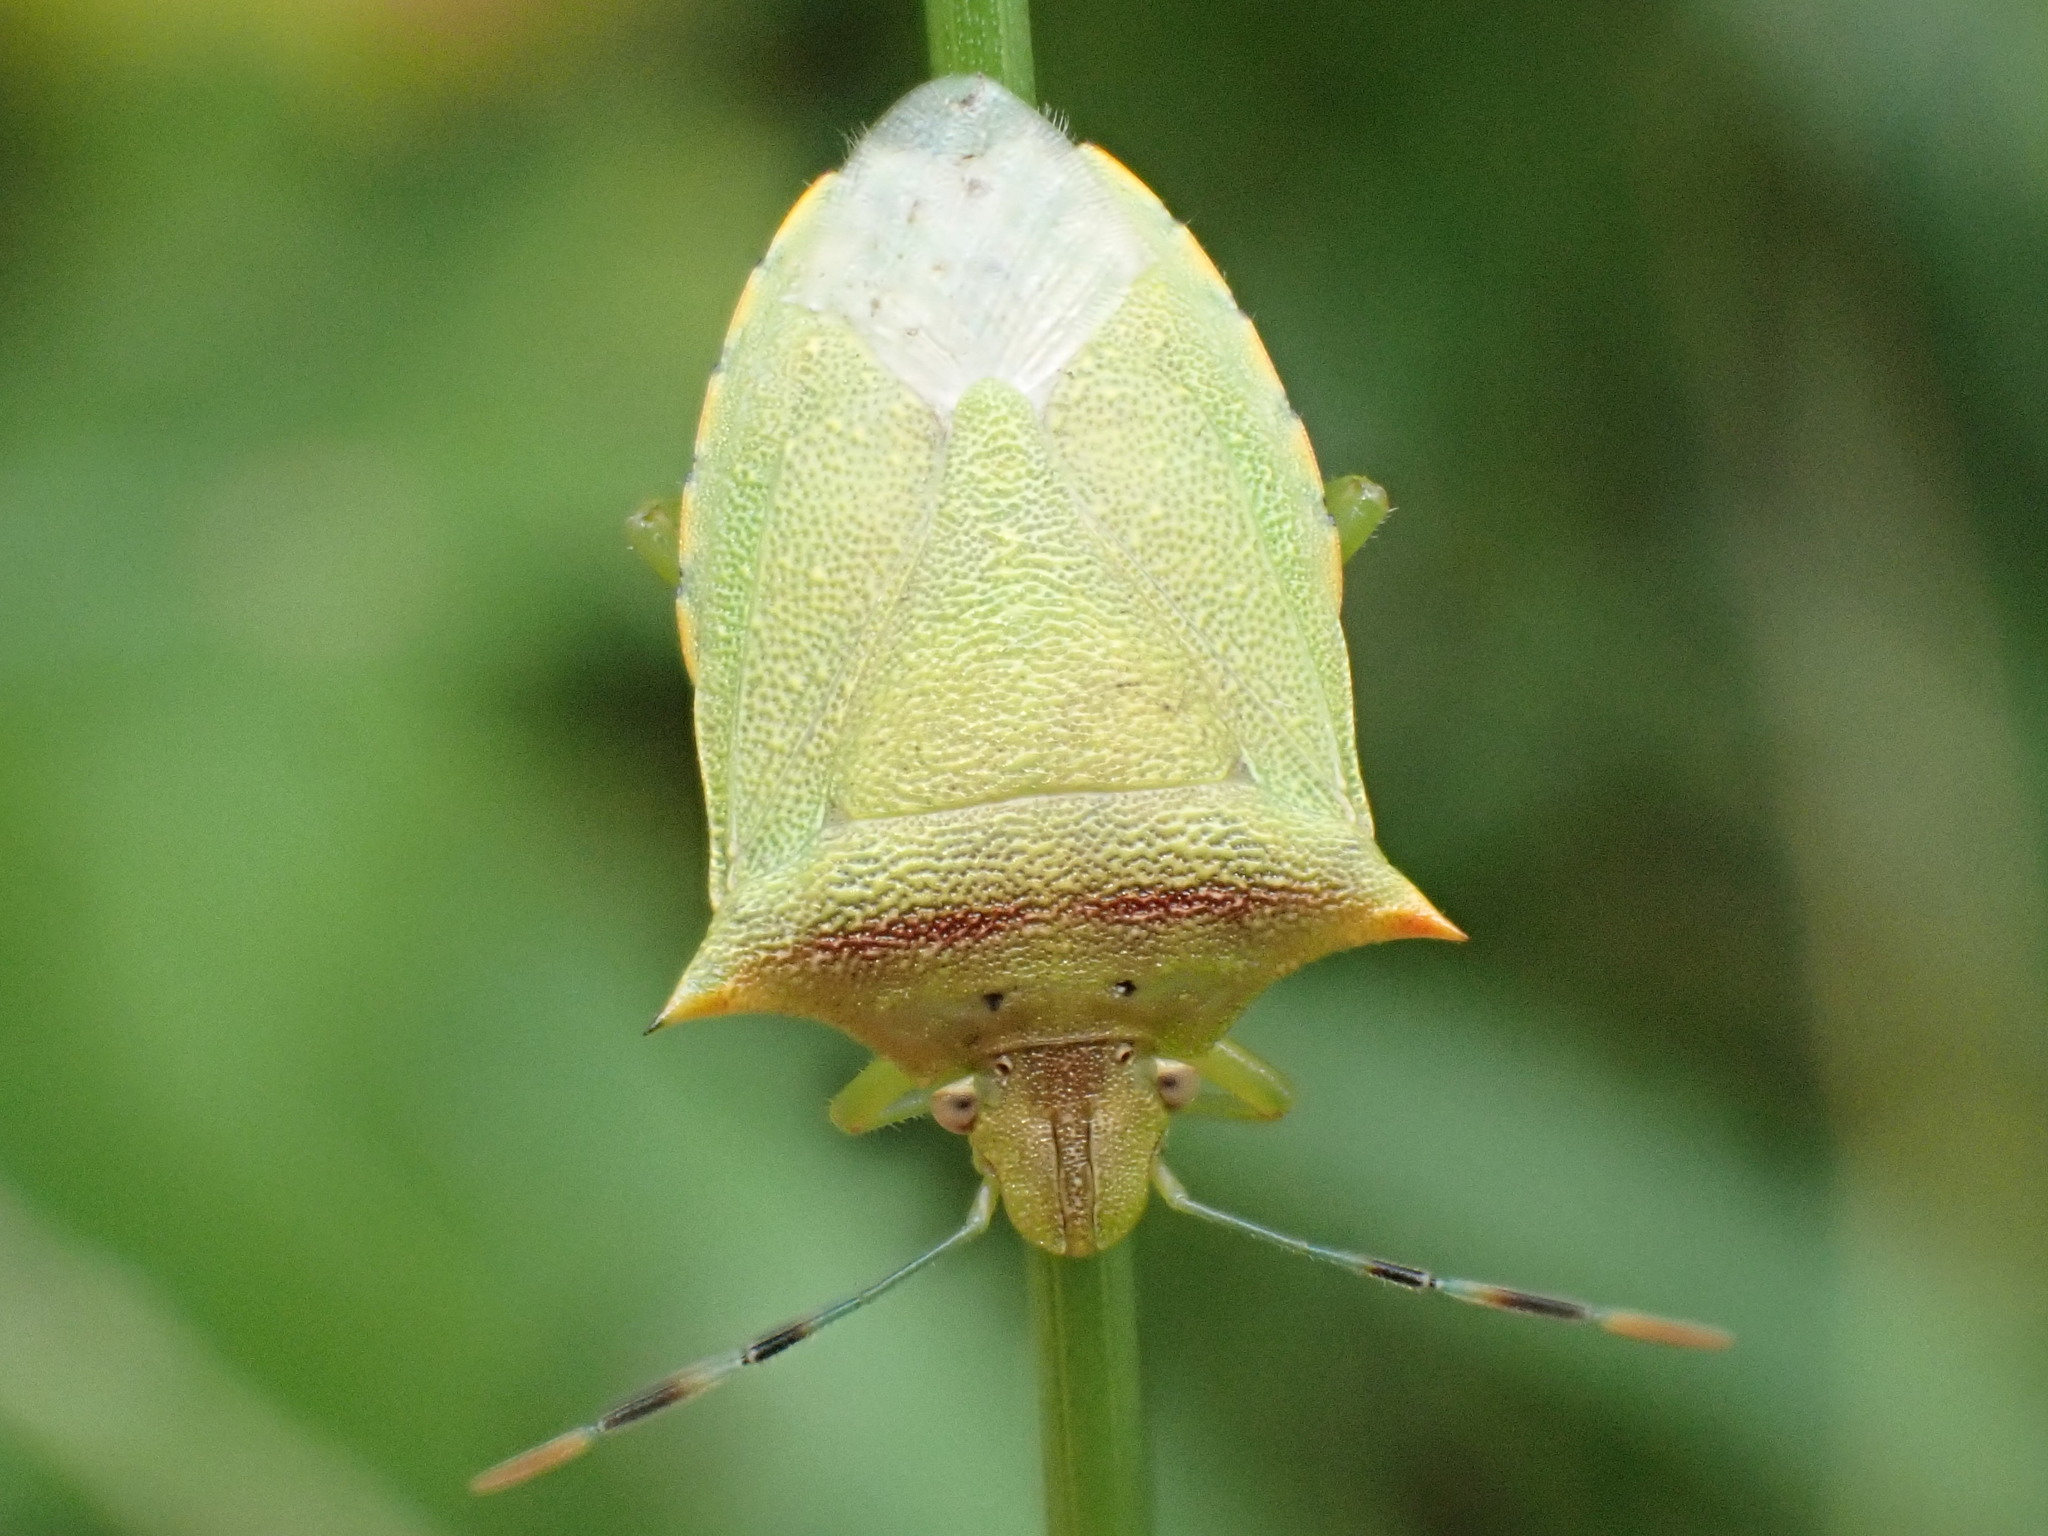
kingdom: Animalia
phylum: Arthropoda
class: Insecta
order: Hemiptera
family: Pentatomidae
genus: Thyanta
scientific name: Thyanta perditor
